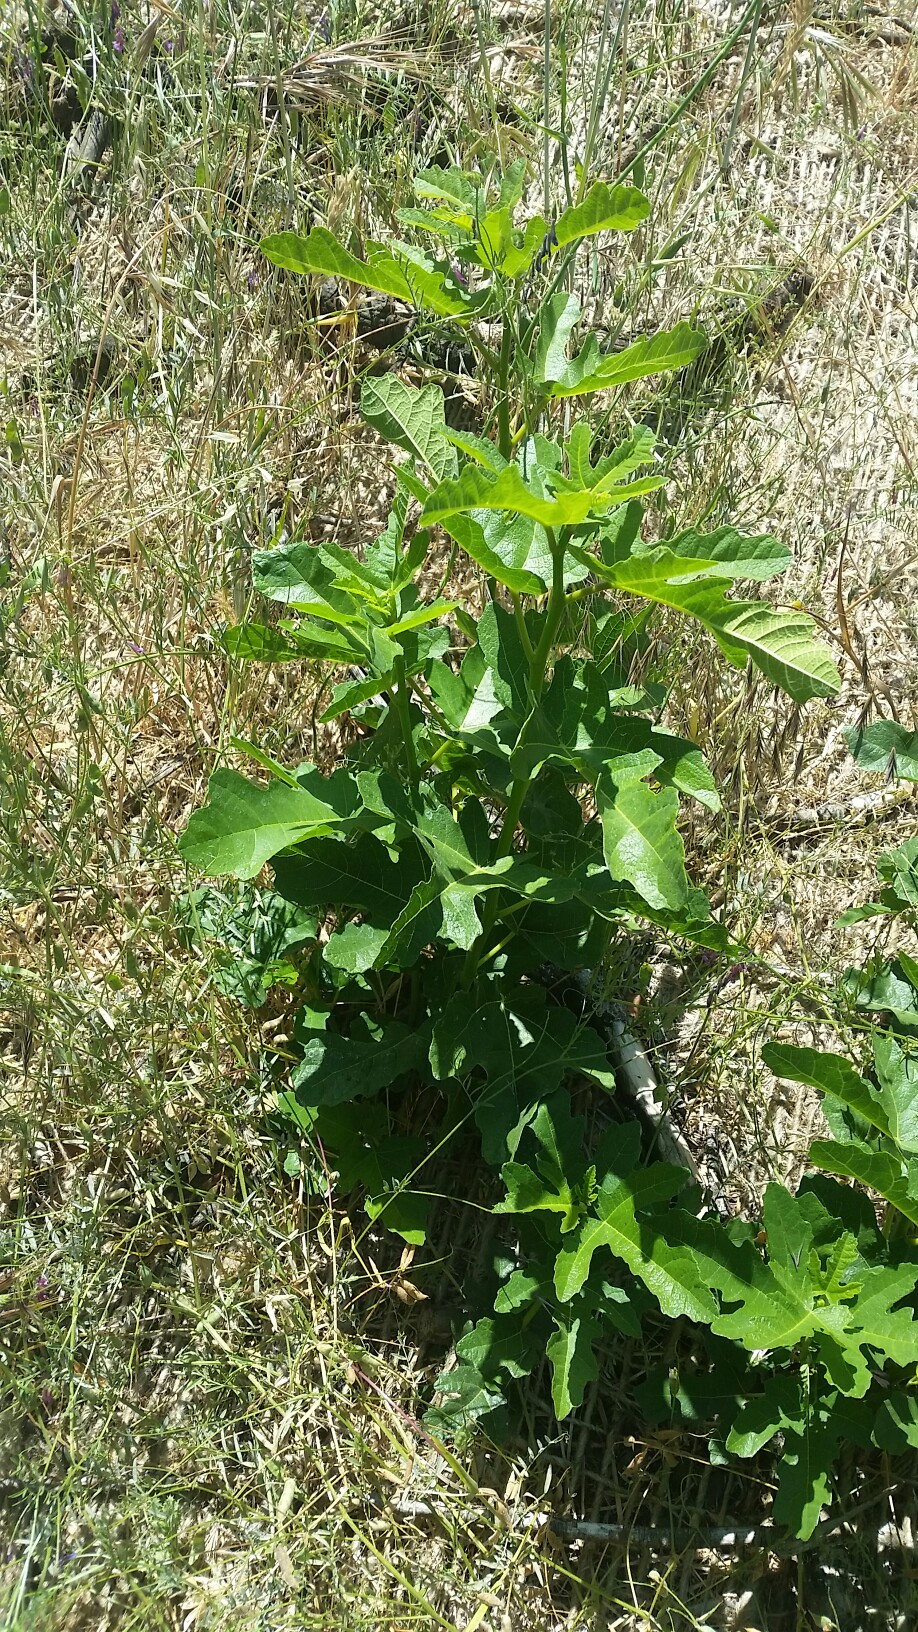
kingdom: Plantae
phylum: Tracheophyta
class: Magnoliopsida
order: Rosales
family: Moraceae
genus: Ficus
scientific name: Ficus carica
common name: Fig
